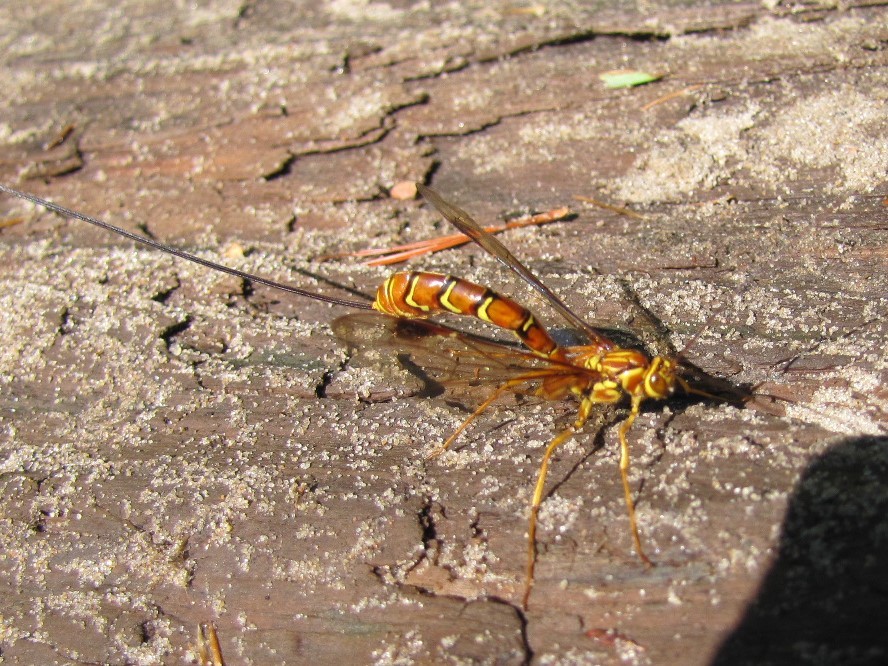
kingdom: Animalia
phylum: Arthropoda
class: Insecta
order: Hymenoptera
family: Ichneumonidae
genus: Megarhyssa
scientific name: Megarhyssa greenei
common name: Greene's giant ichneumonid wasp
